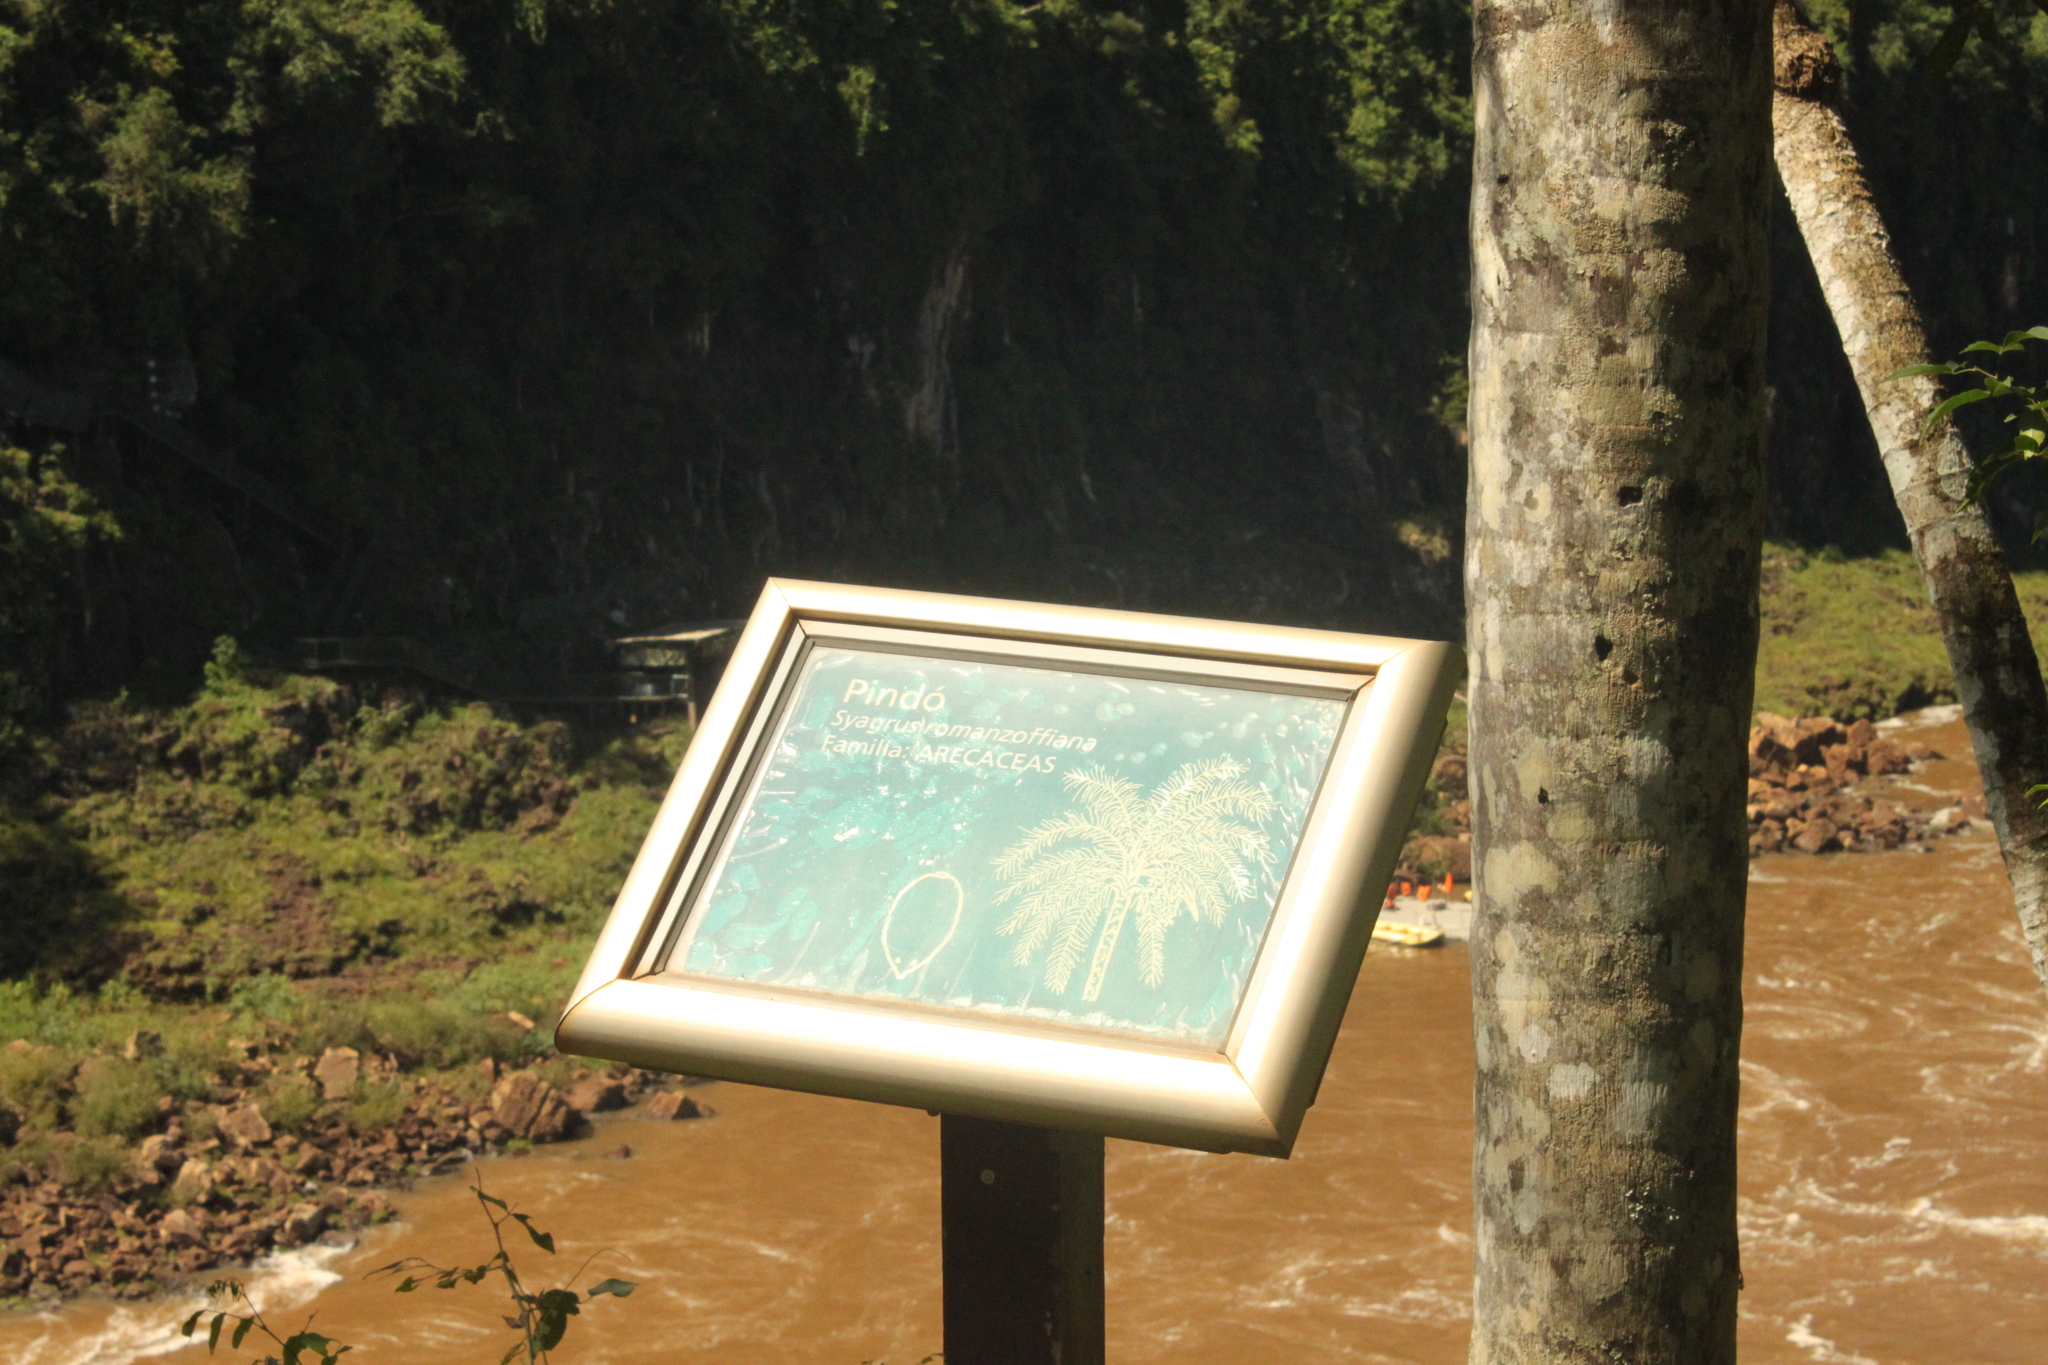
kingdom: Plantae
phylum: Tracheophyta
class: Liliopsida
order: Arecales
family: Arecaceae
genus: Syagrus
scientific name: Syagrus romanzoffiana
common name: Queen palm
